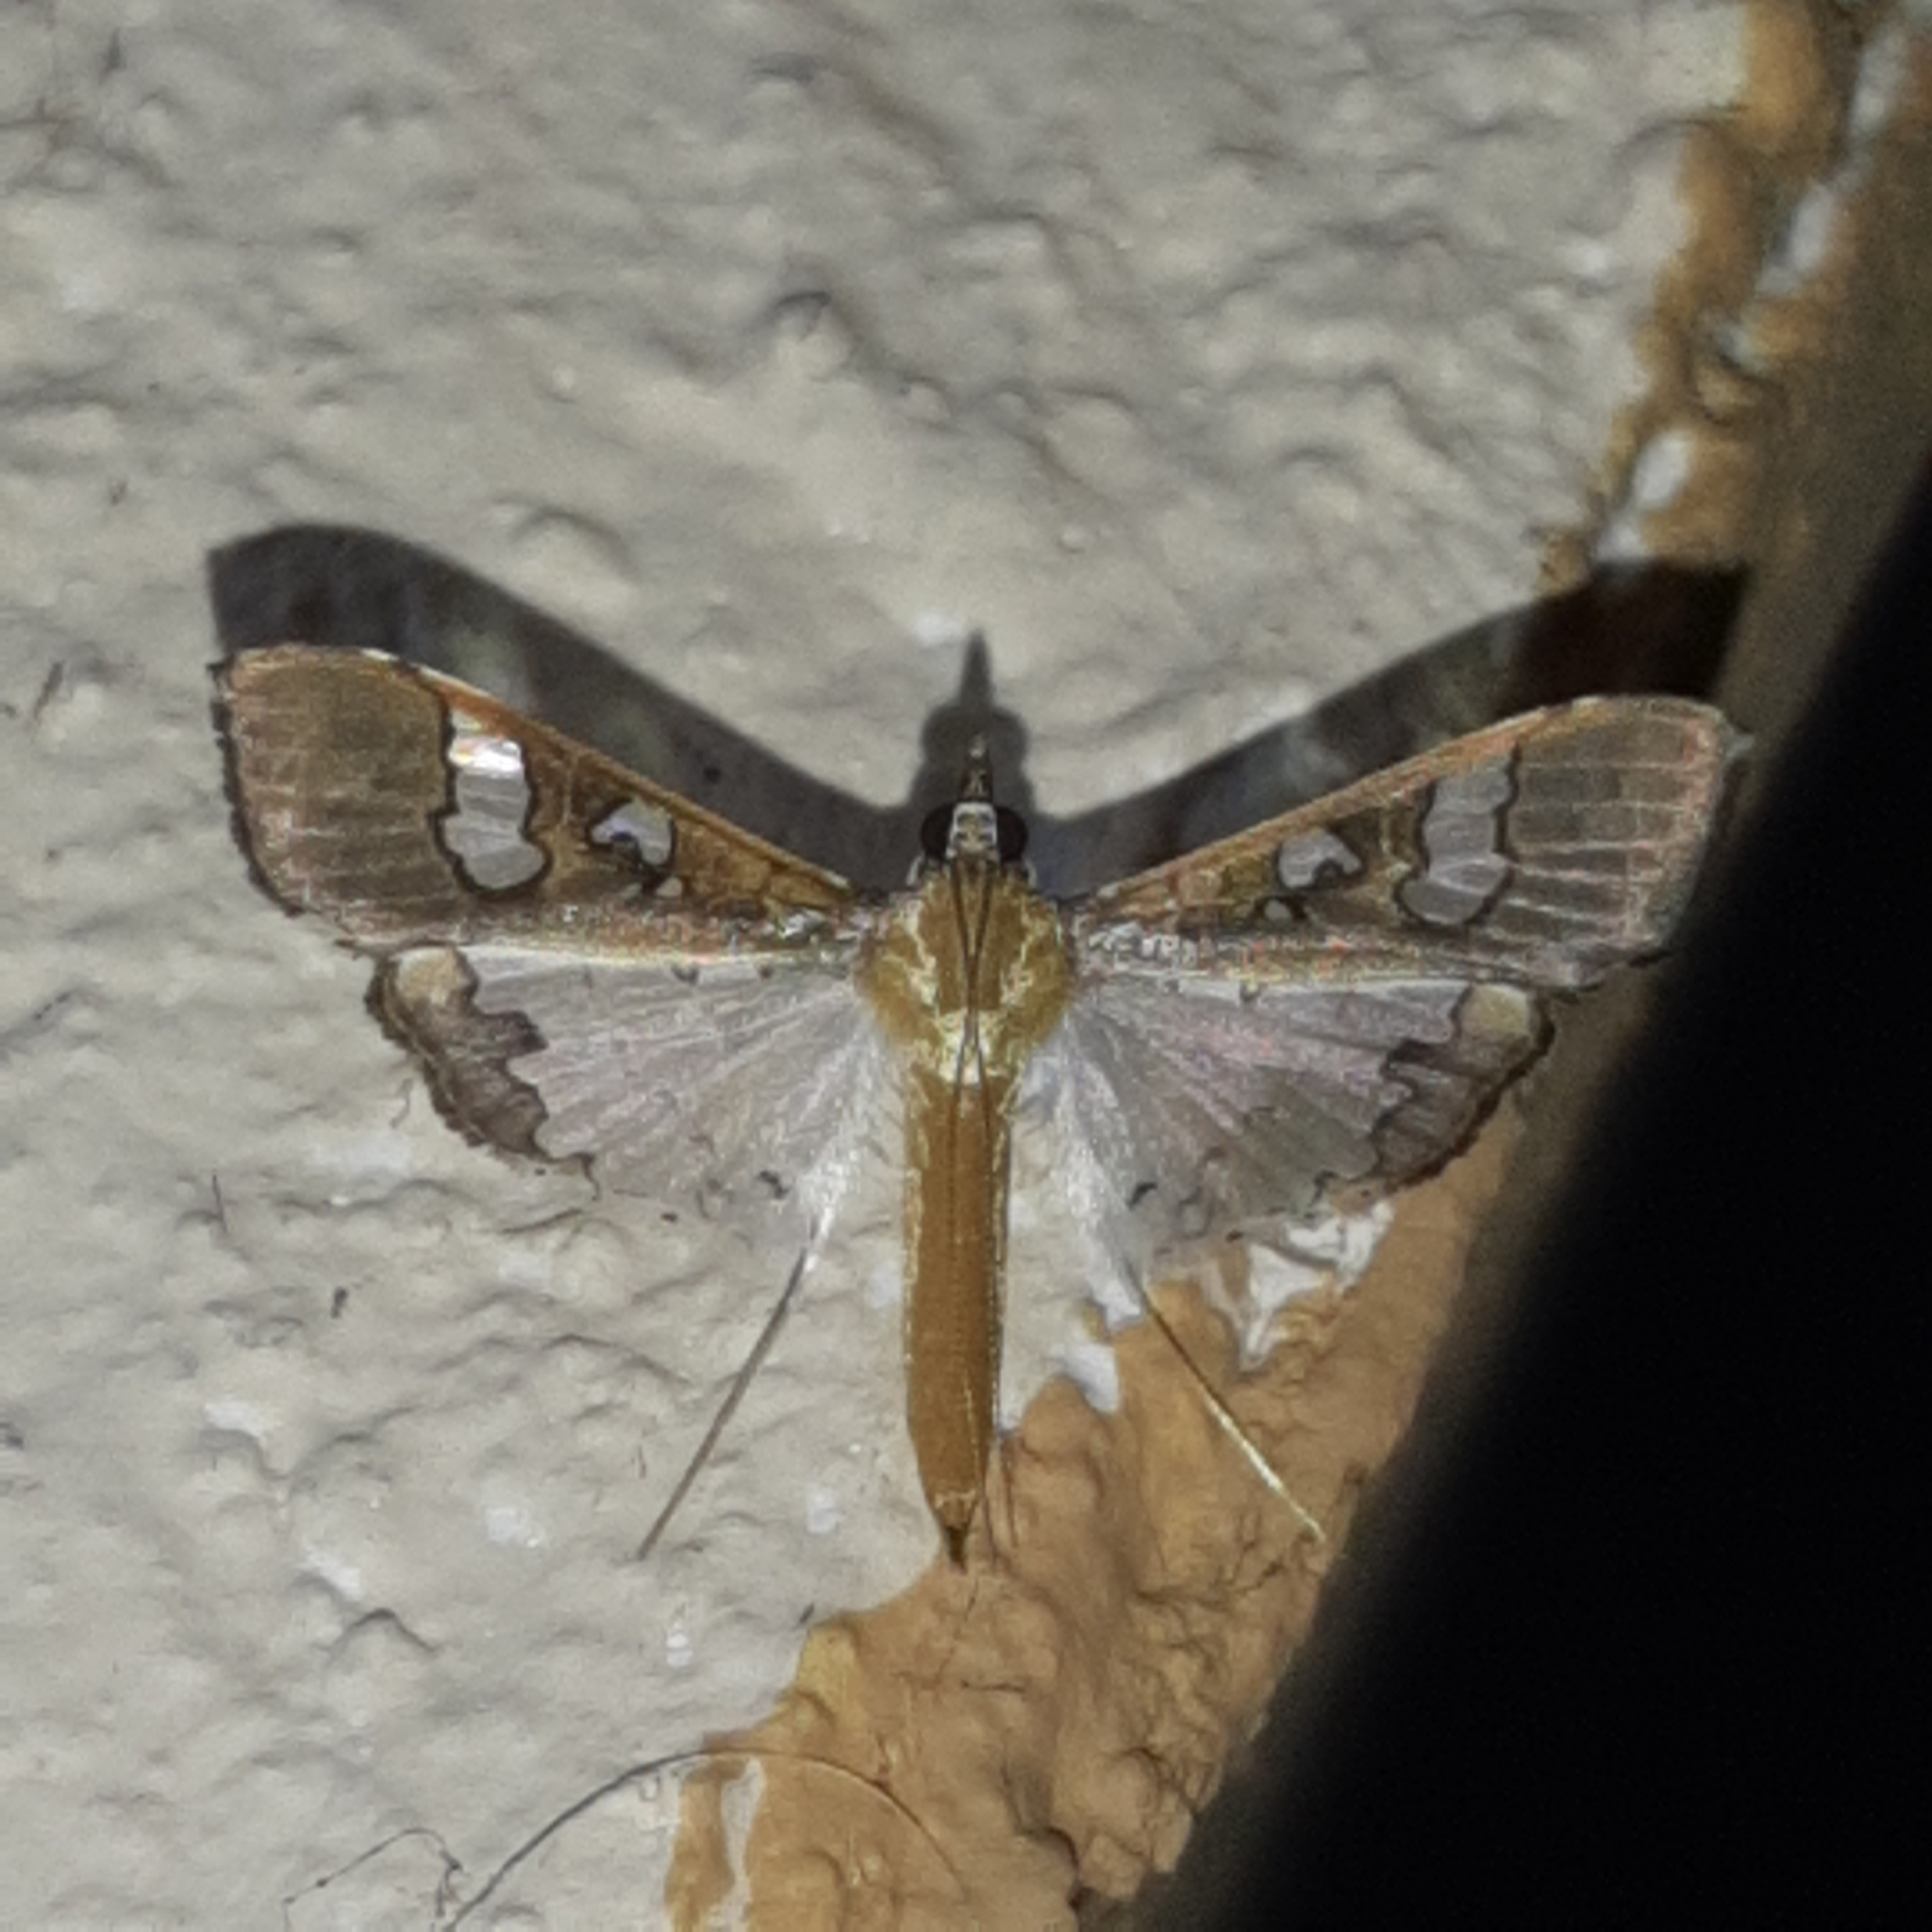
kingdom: Animalia
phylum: Arthropoda
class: Insecta
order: Lepidoptera
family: Crambidae
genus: Maruca
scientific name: Maruca vitrata
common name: Maruca pod borer
